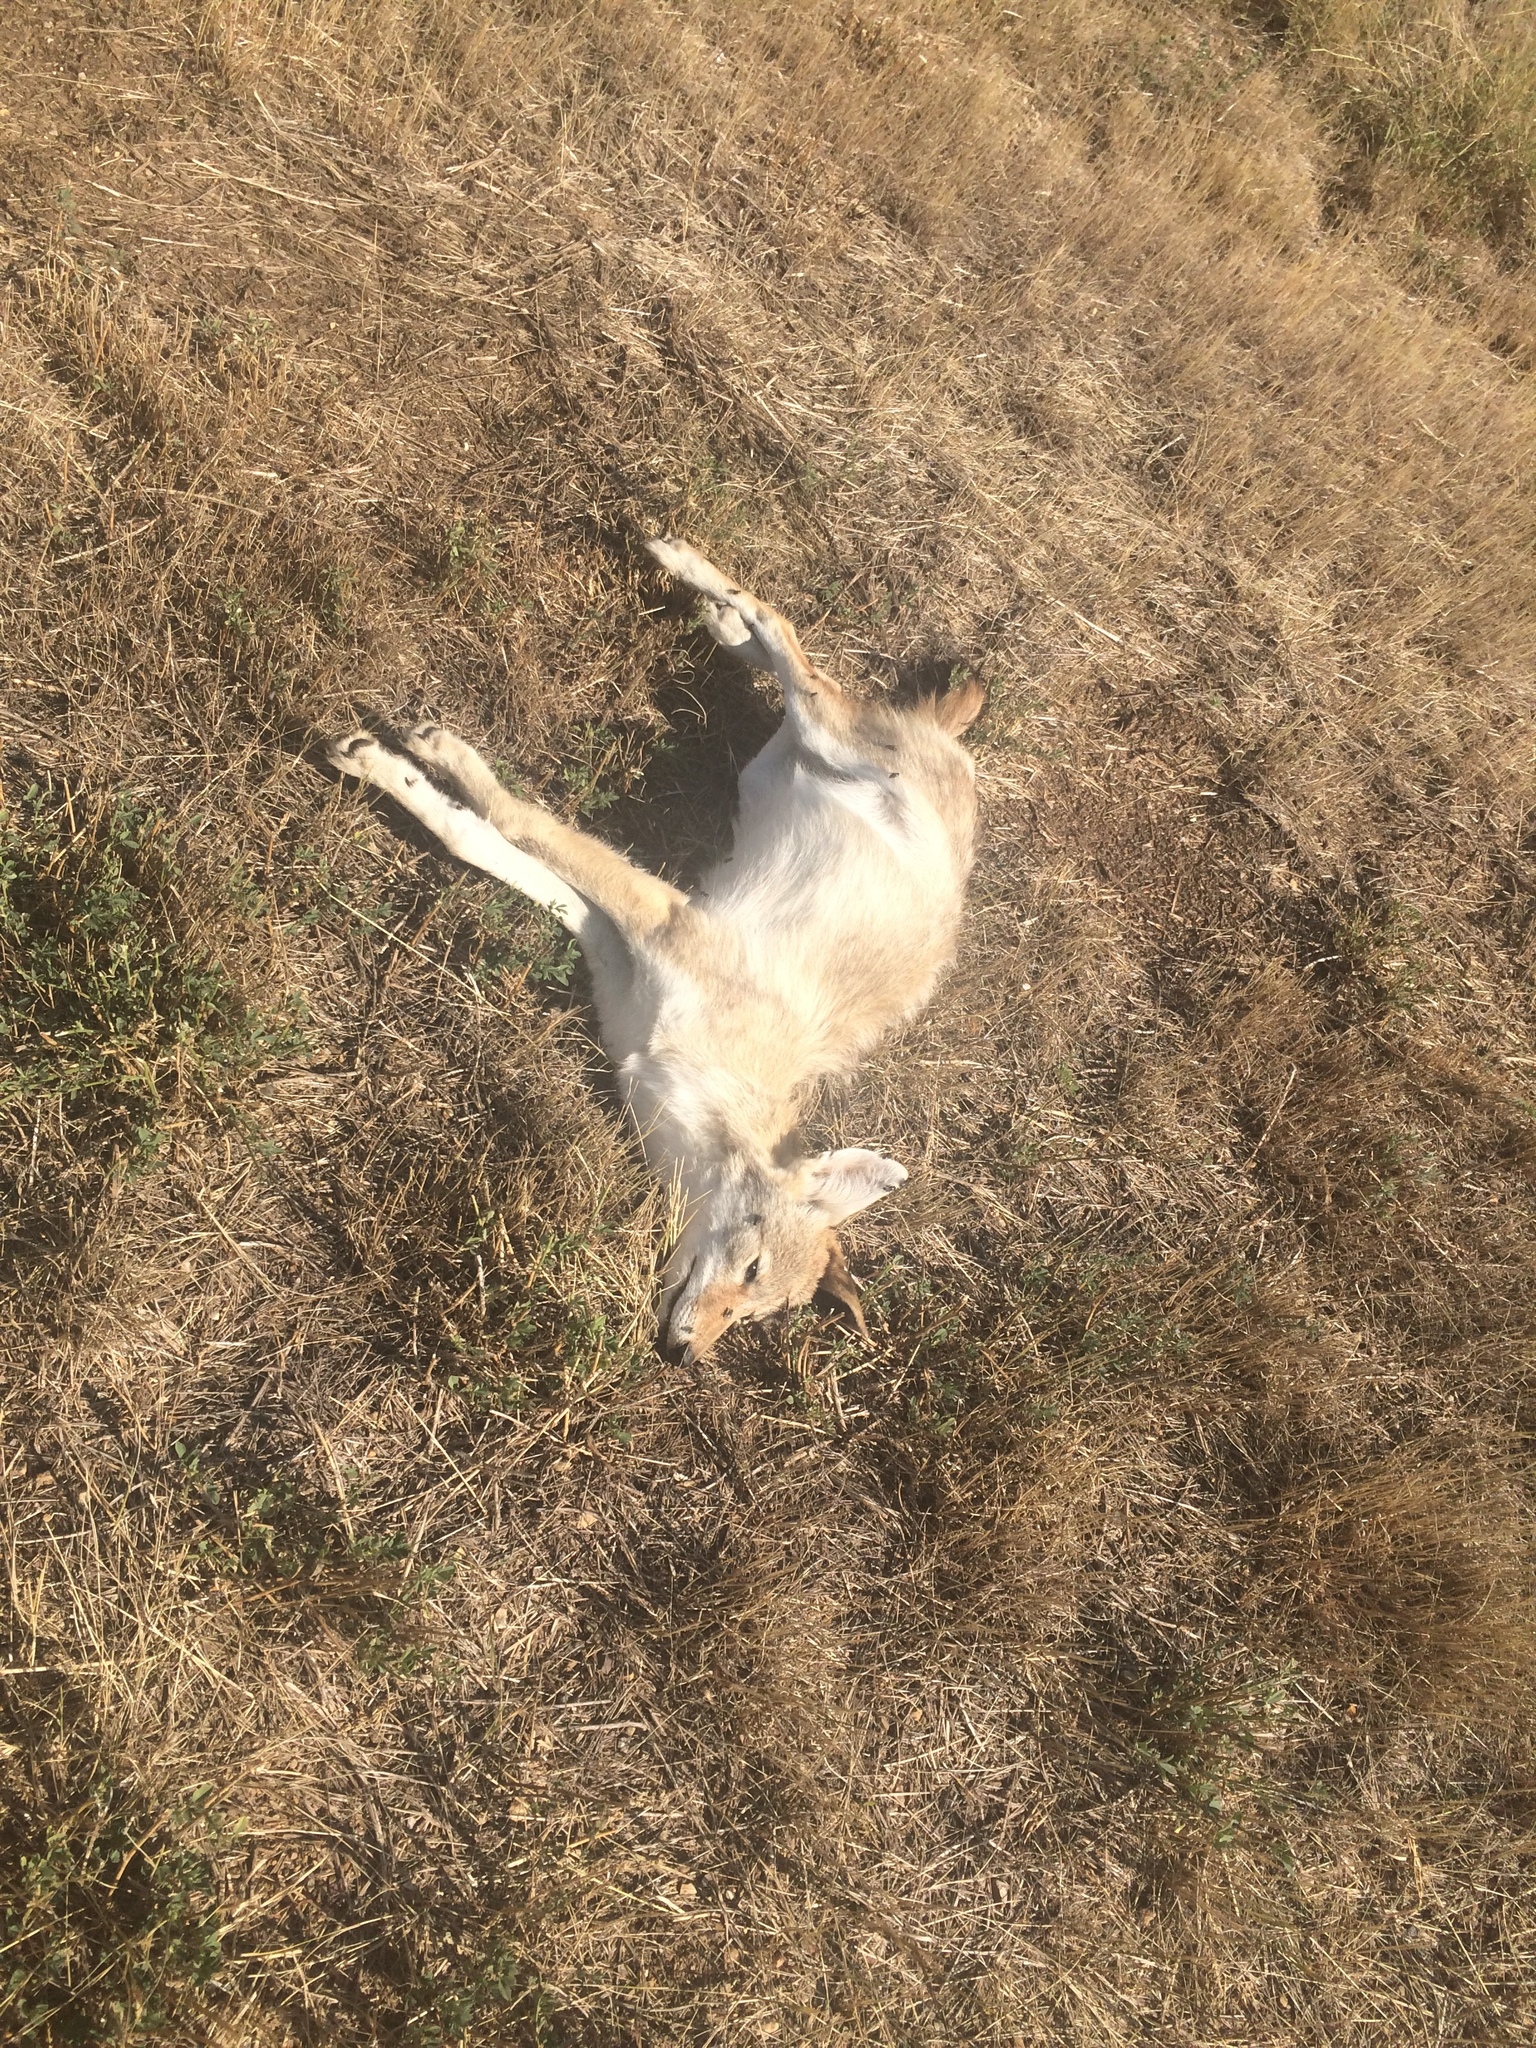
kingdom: Animalia
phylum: Chordata
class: Mammalia
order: Carnivora
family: Canidae
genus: Canis
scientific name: Canis latrans
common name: Coyote
